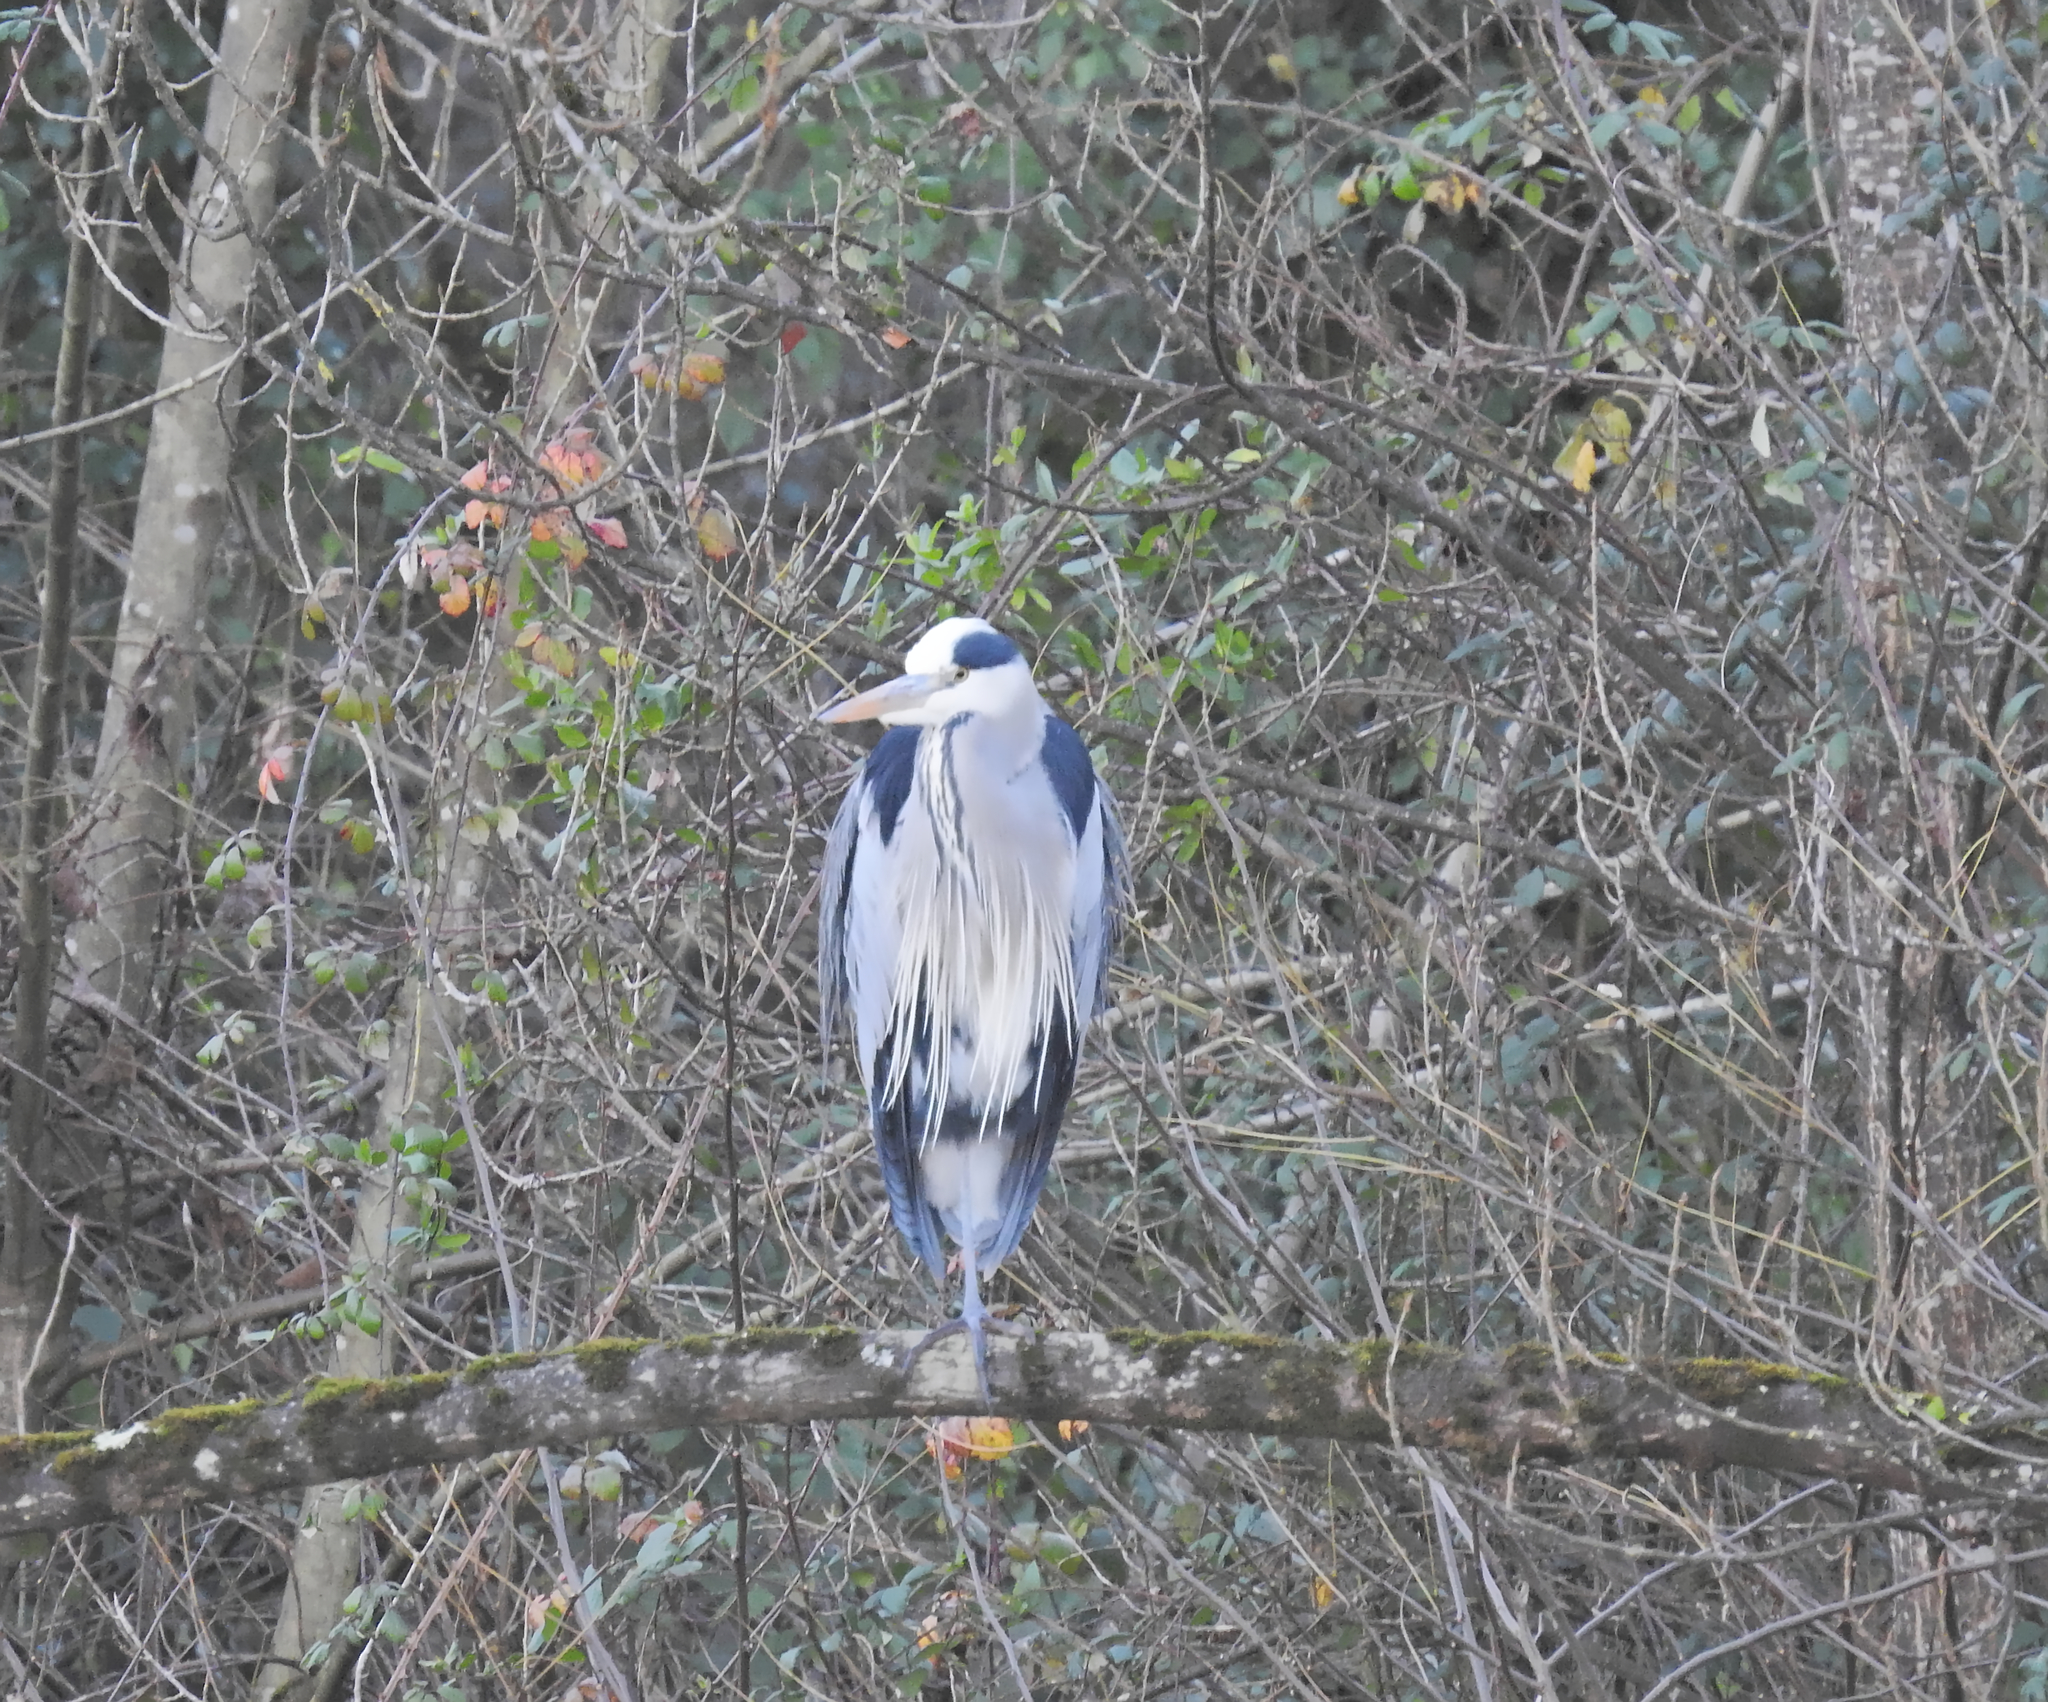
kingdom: Animalia
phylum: Chordata
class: Aves
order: Pelecaniformes
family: Ardeidae
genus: Ardea
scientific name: Ardea cinerea
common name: Grey heron
